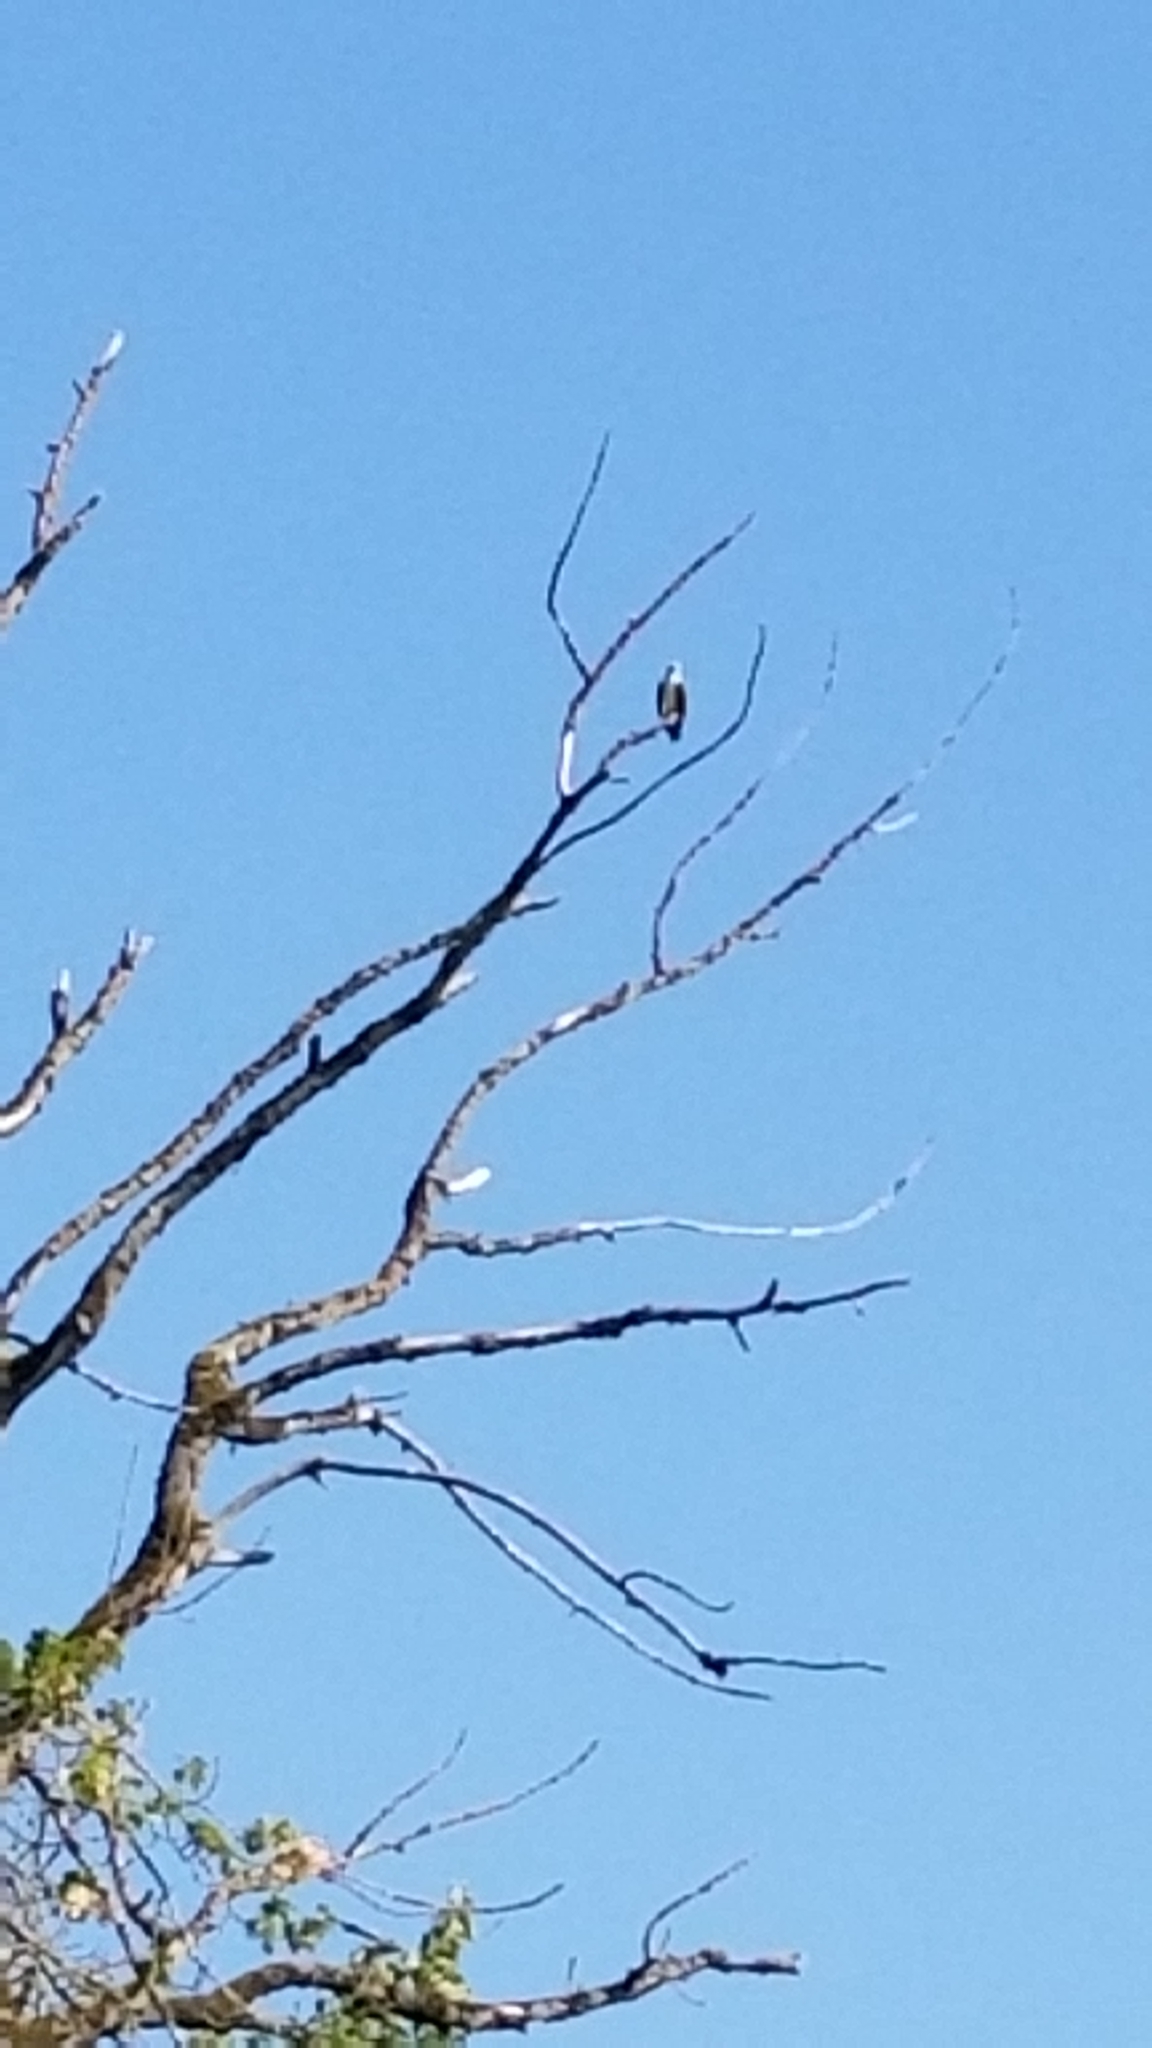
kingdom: Animalia
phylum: Chordata
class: Aves
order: Accipitriformes
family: Pandionidae
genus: Pandion
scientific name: Pandion haliaetus
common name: Osprey
